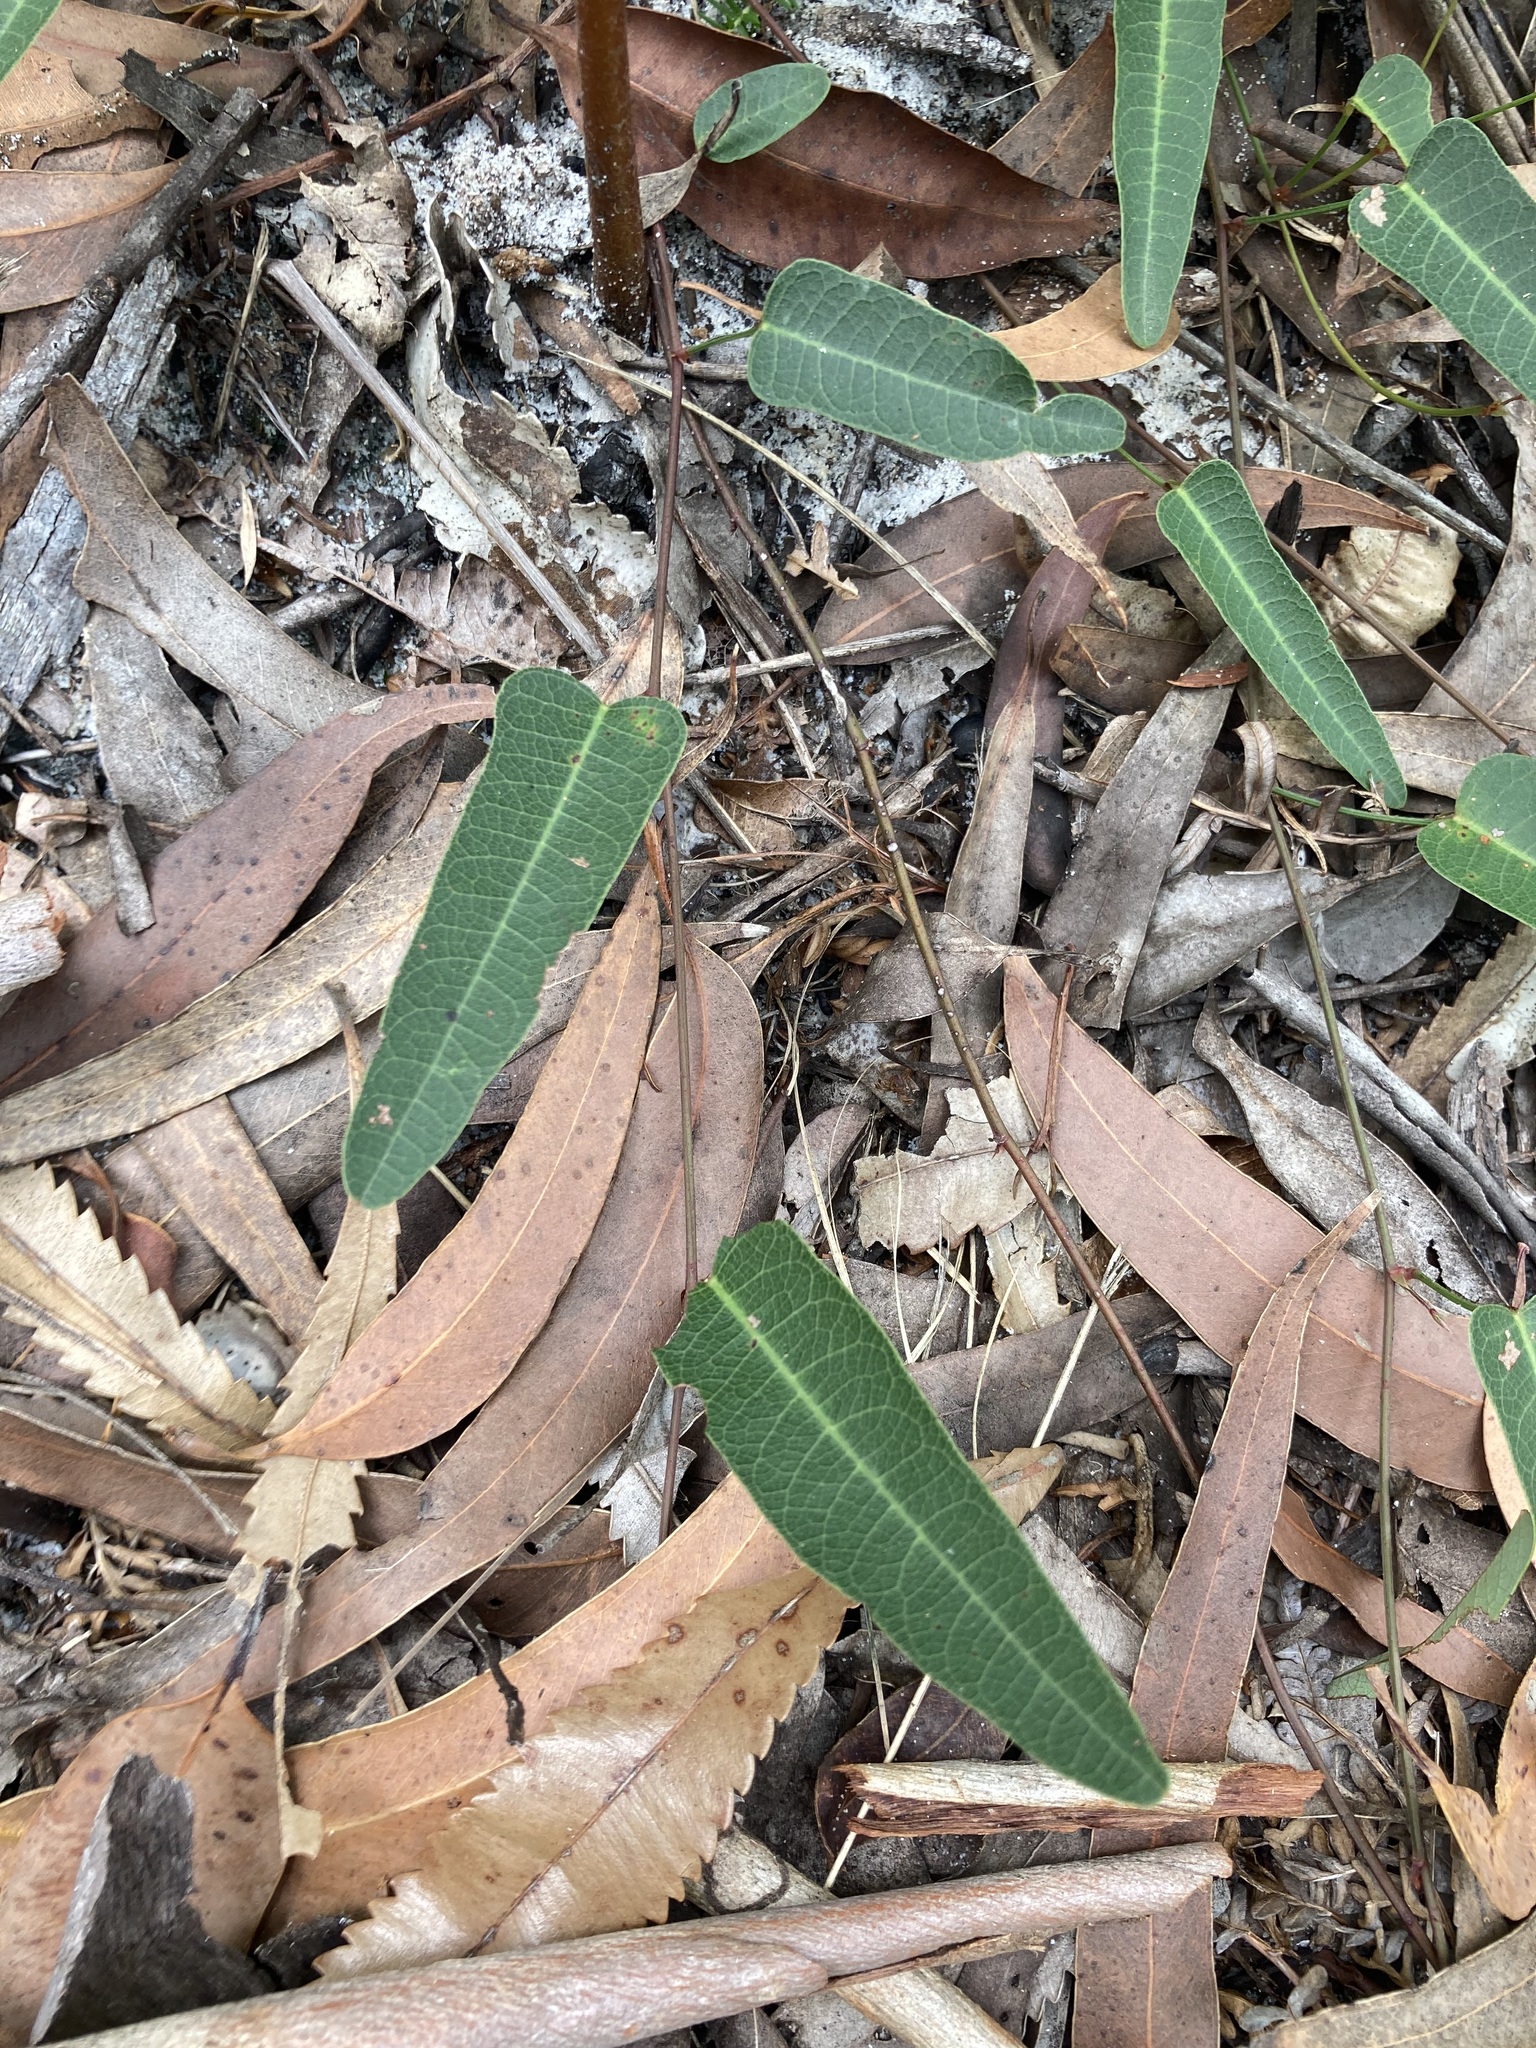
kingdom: Plantae
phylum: Tracheophyta
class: Magnoliopsida
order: Fabales
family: Fabaceae
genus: Hardenbergia
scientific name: Hardenbergia violacea
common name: Coral-pea
